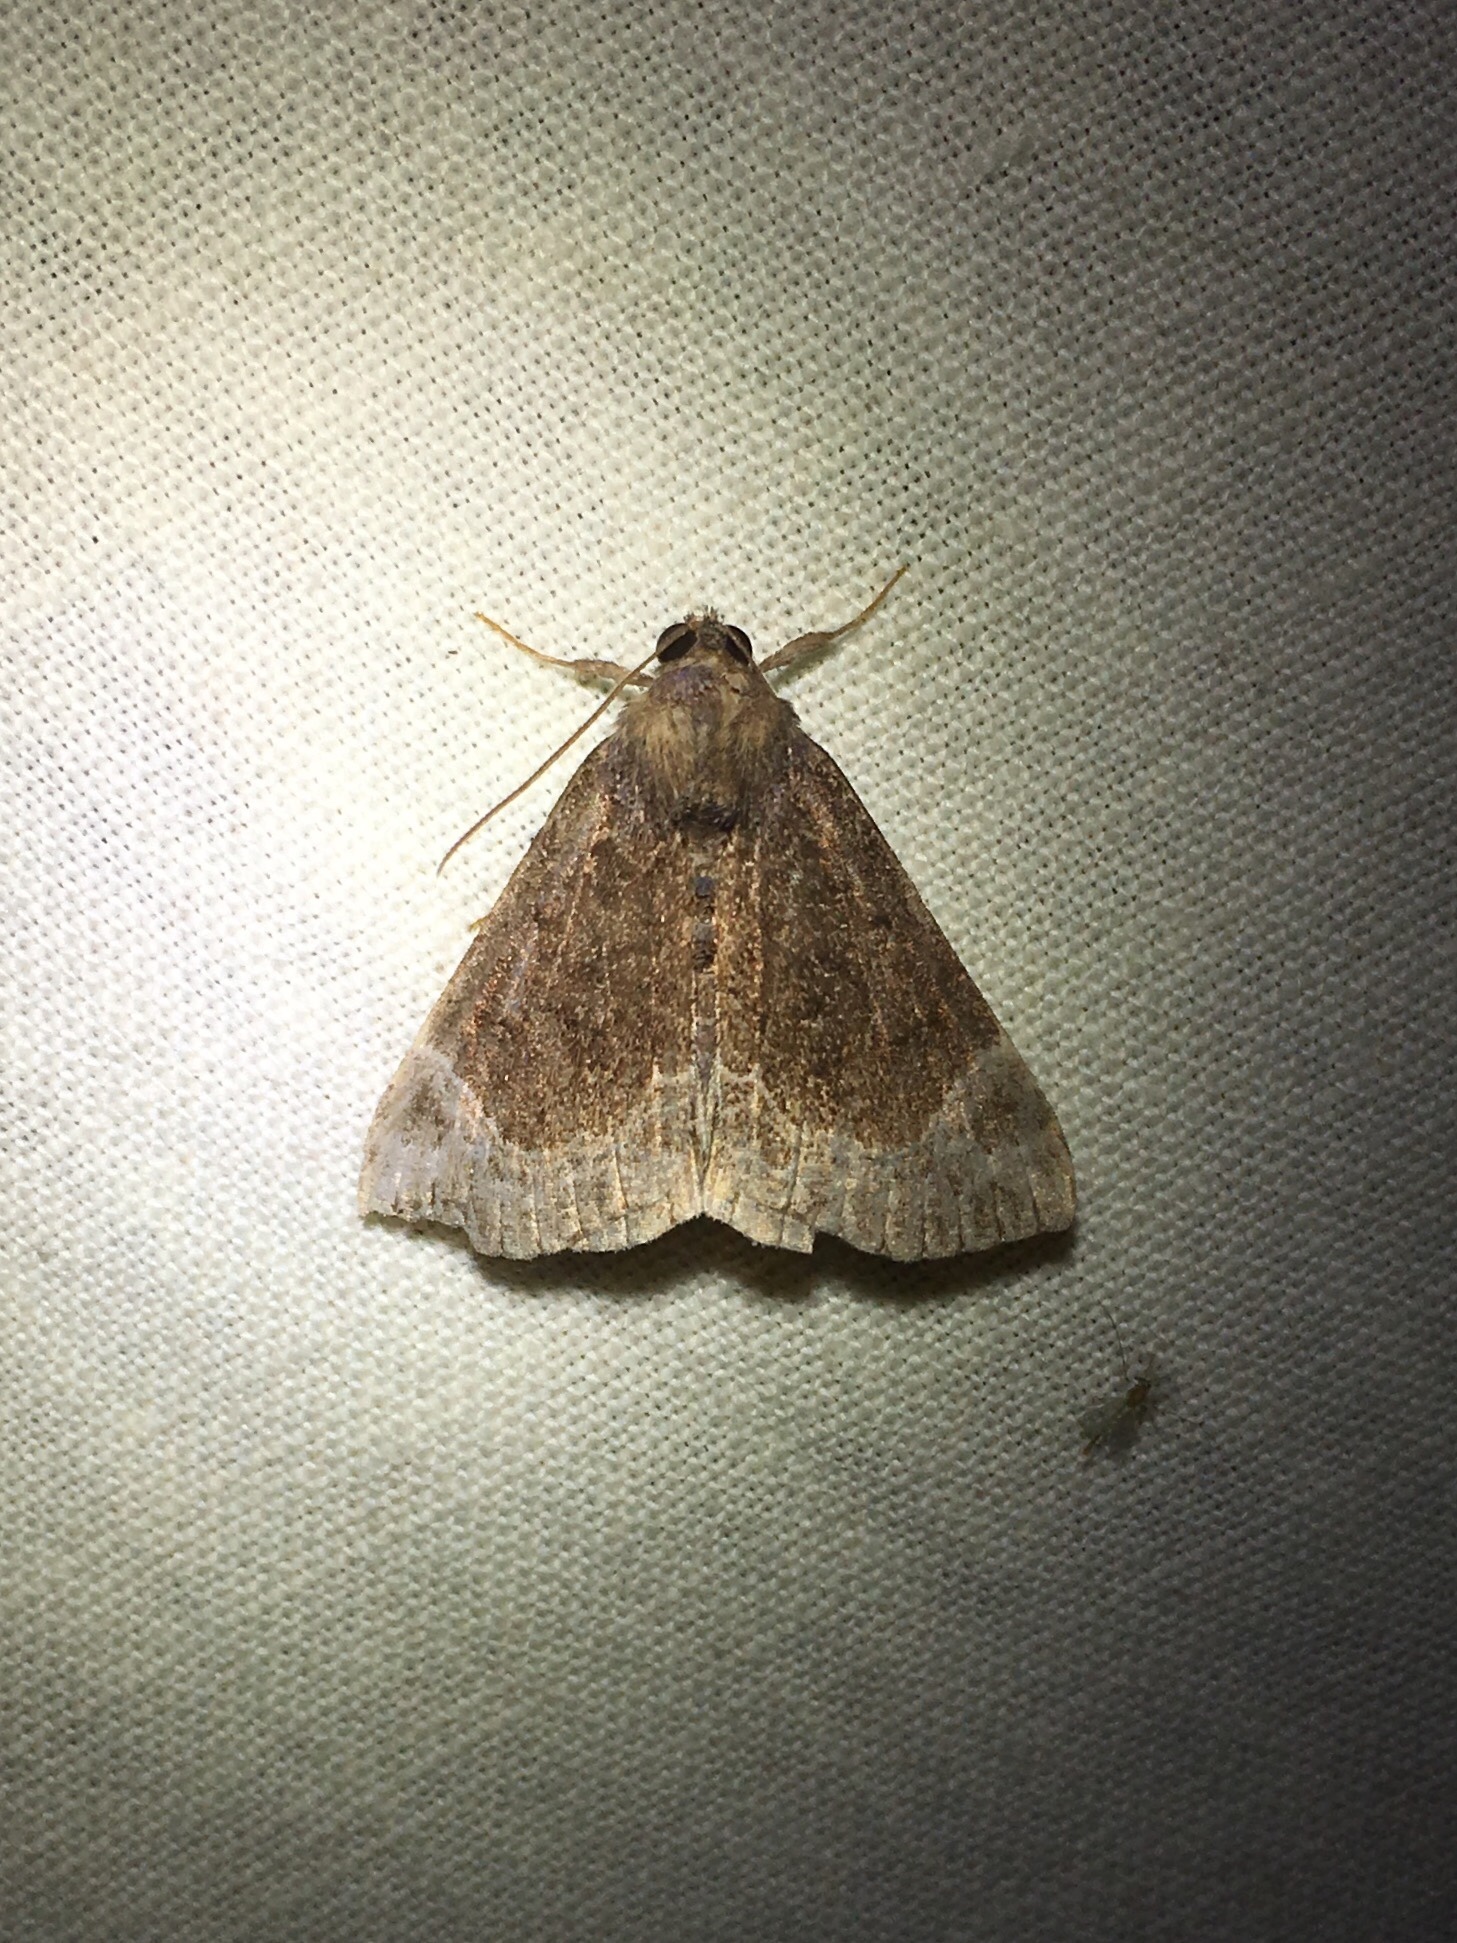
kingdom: Animalia
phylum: Arthropoda
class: Insecta
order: Lepidoptera
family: Erebidae
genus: Hypena
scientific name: Hypena abalienalis
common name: White-lined snout
